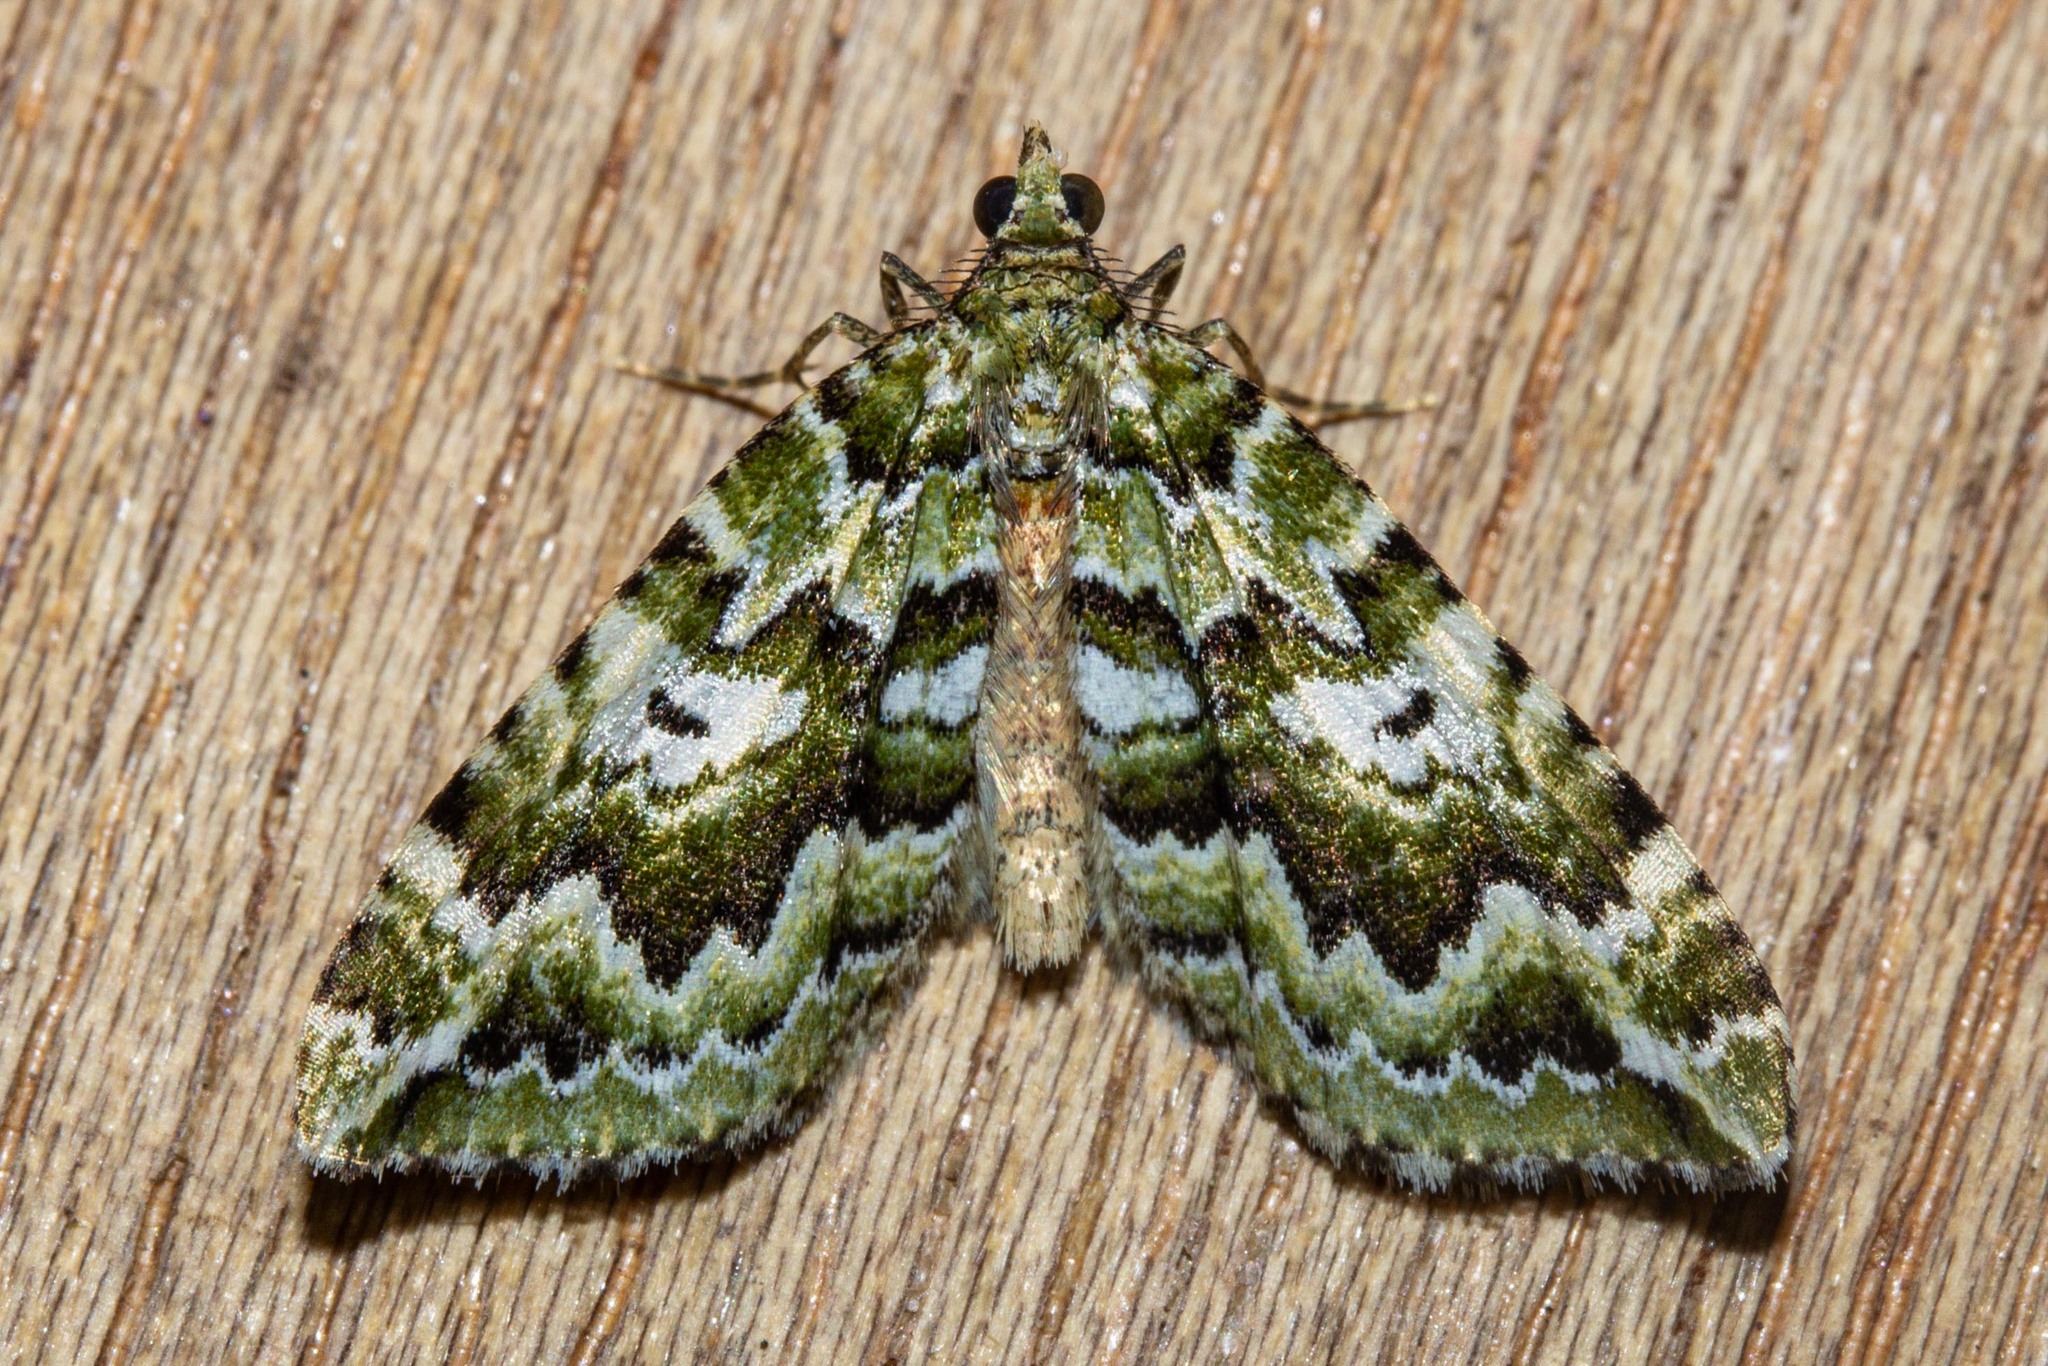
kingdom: Animalia
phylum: Arthropoda
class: Insecta
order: Lepidoptera
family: Geometridae
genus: Asaphodes
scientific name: Asaphodes beata
